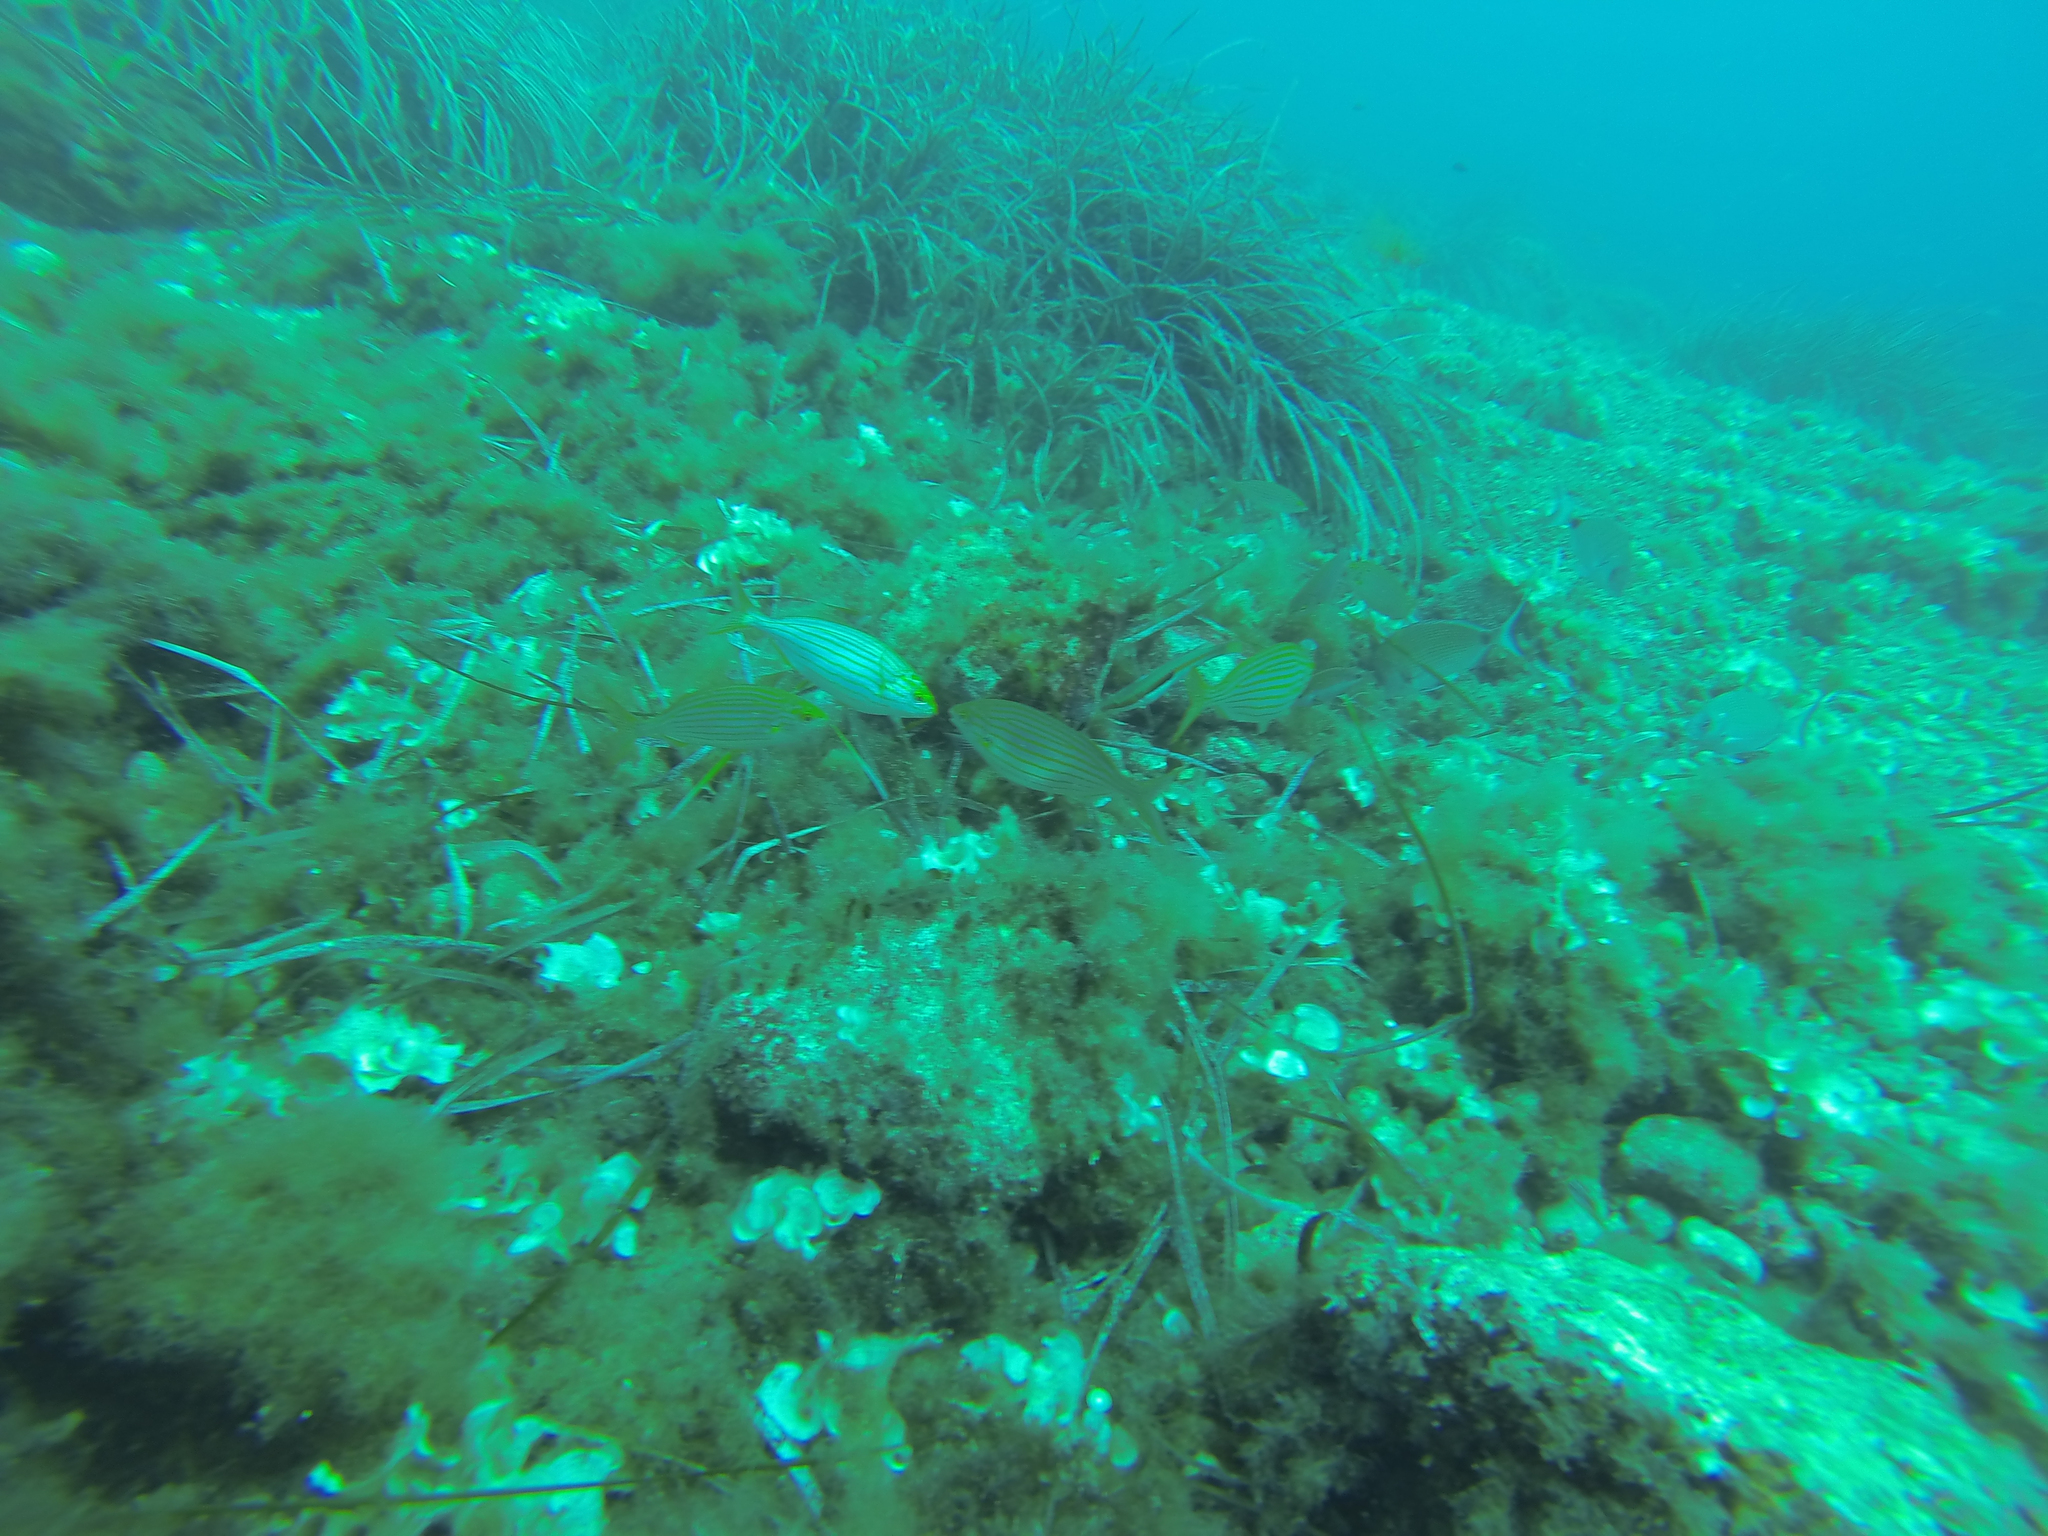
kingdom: Animalia
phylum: Chordata
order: Perciformes
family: Sparidae
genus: Sarpa
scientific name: Sarpa salpa
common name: Salema
